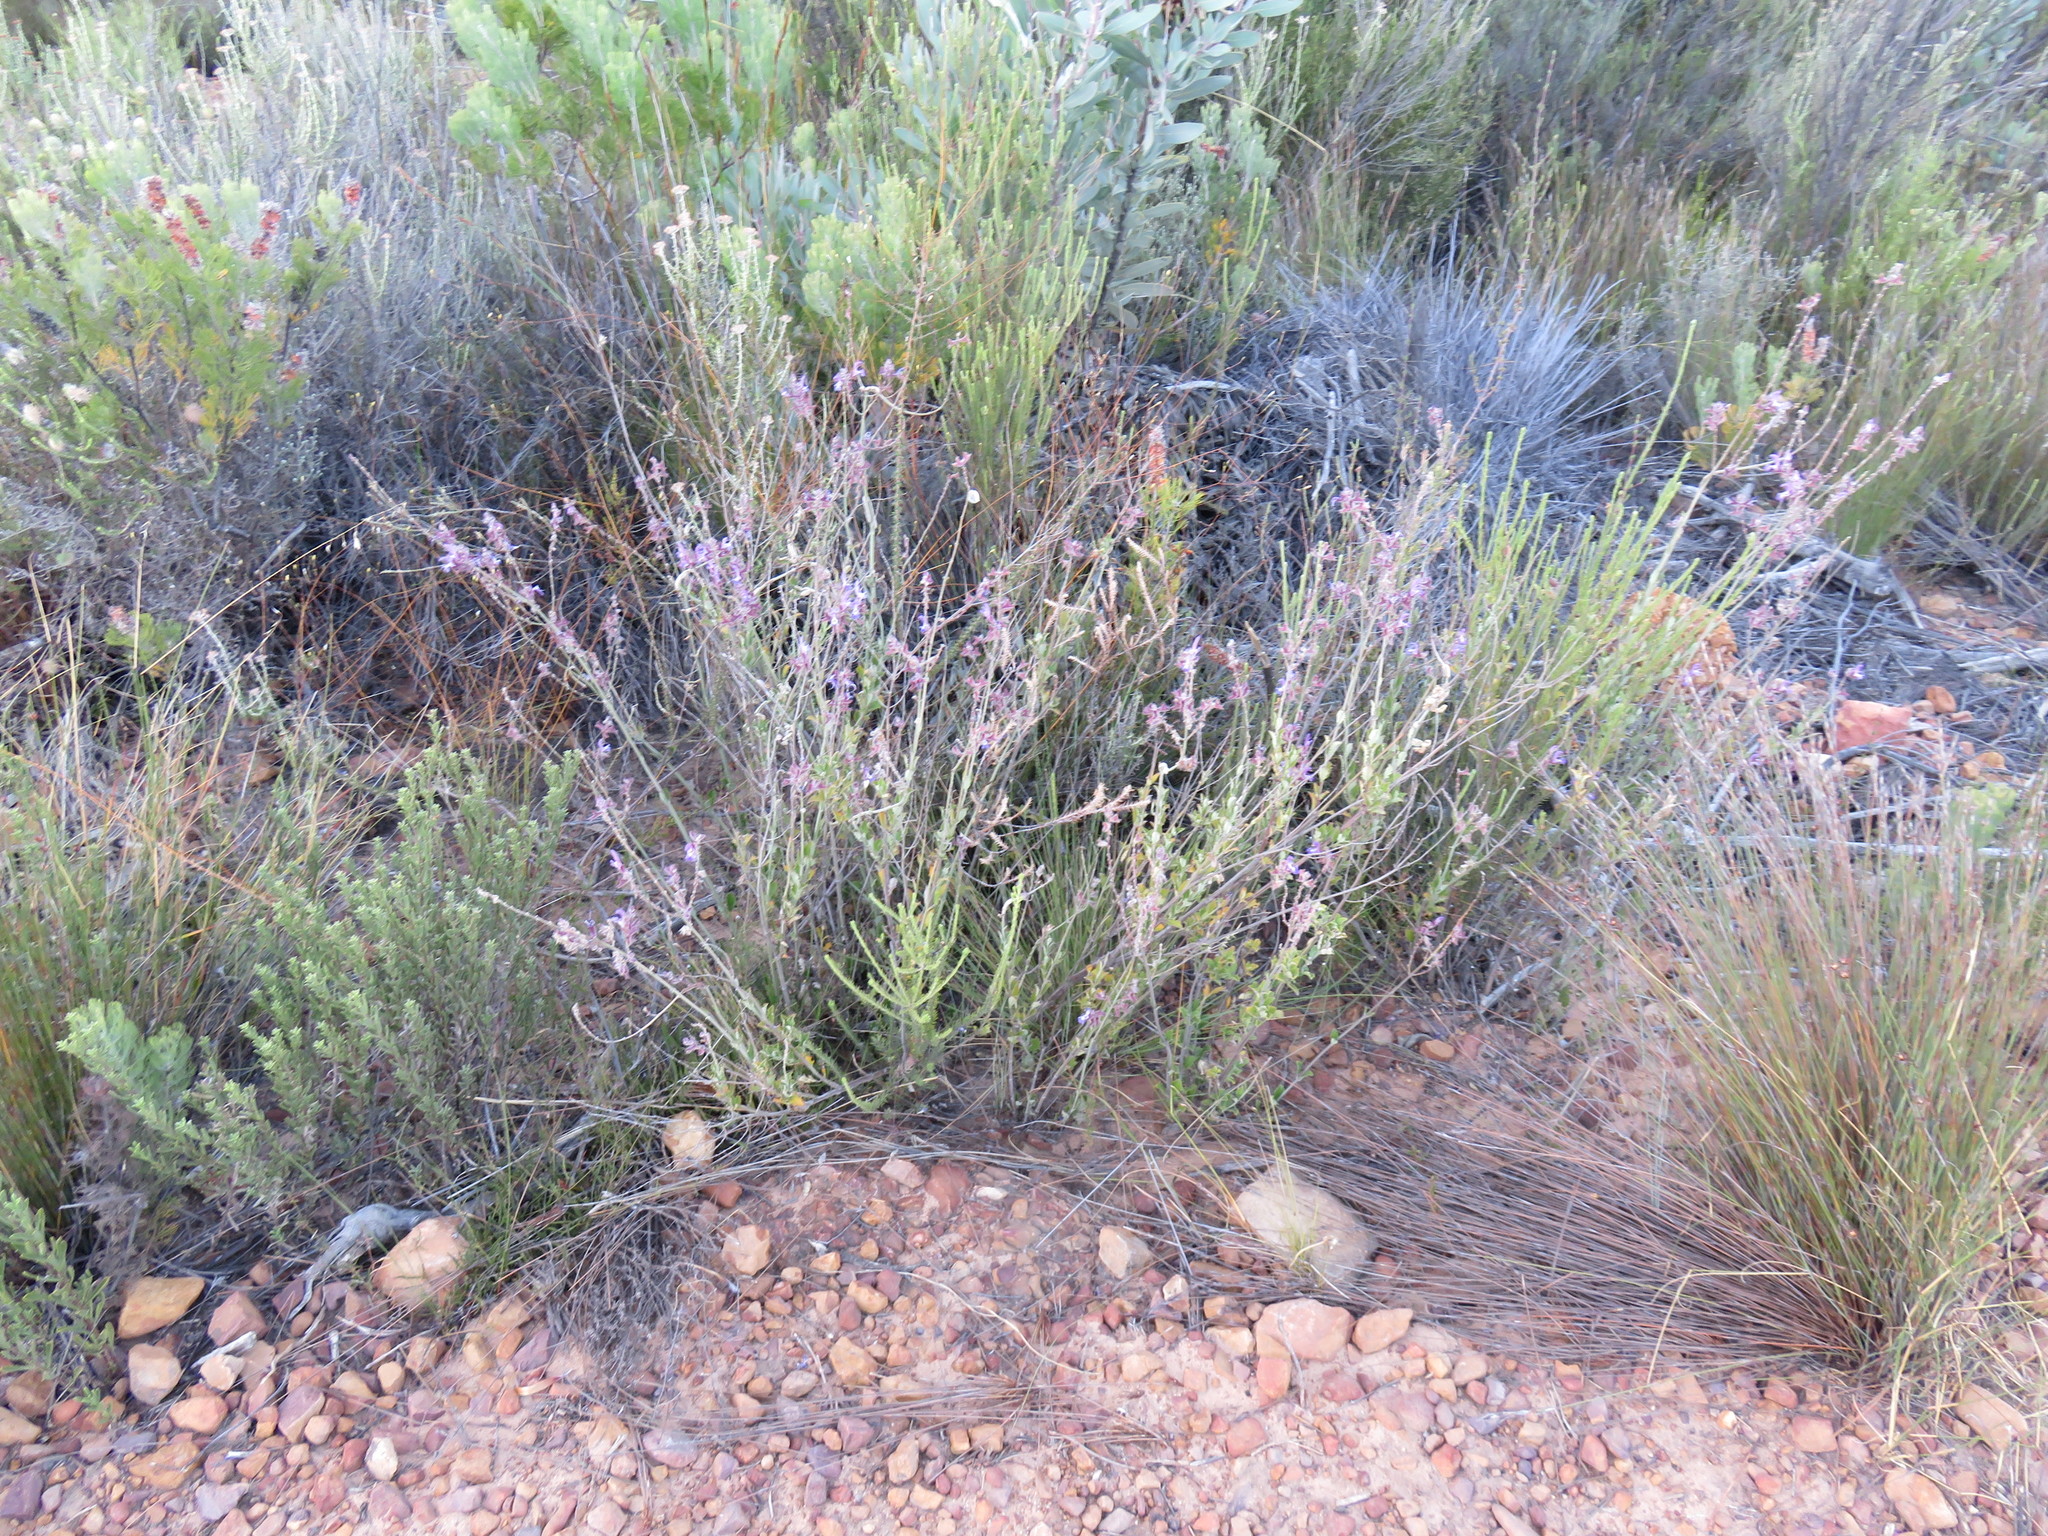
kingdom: Plantae
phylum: Tracheophyta
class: Magnoliopsida
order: Lamiales
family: Lamiaceae
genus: Salvia
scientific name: Salvia albicaulis
